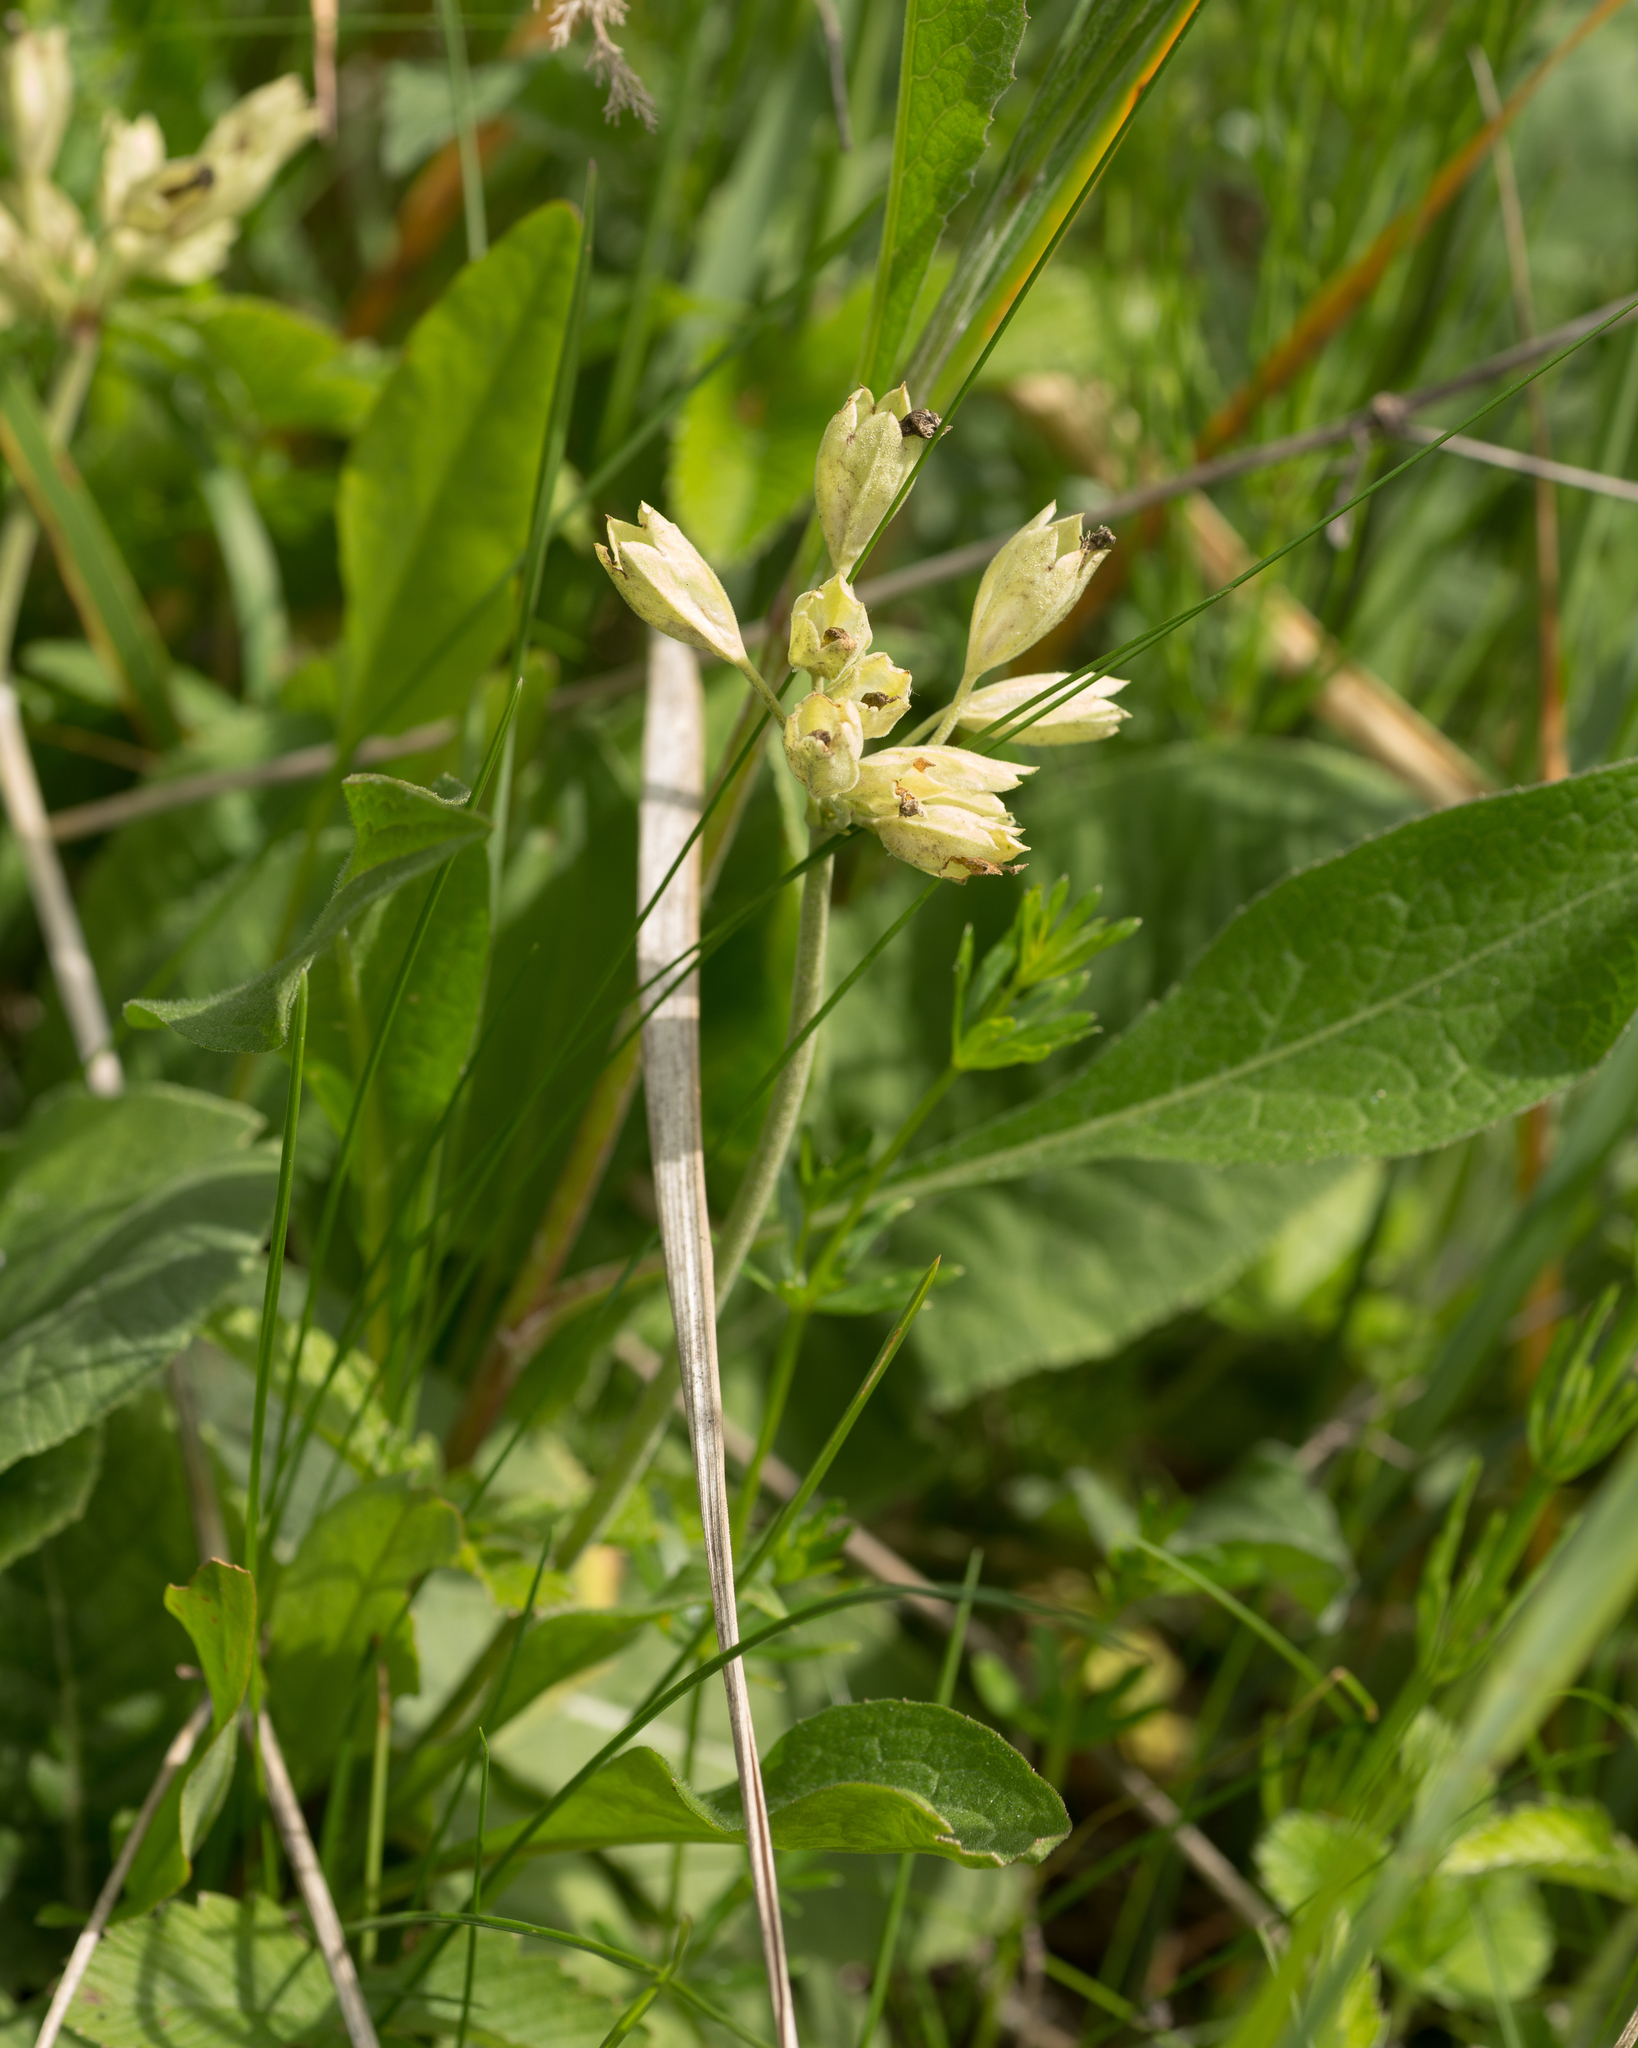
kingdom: Plantae
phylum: Tracheophyta
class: Magnoliopsida
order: Ericales
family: Primulaceae
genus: Primula
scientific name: Primula veris
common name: Cowslip
